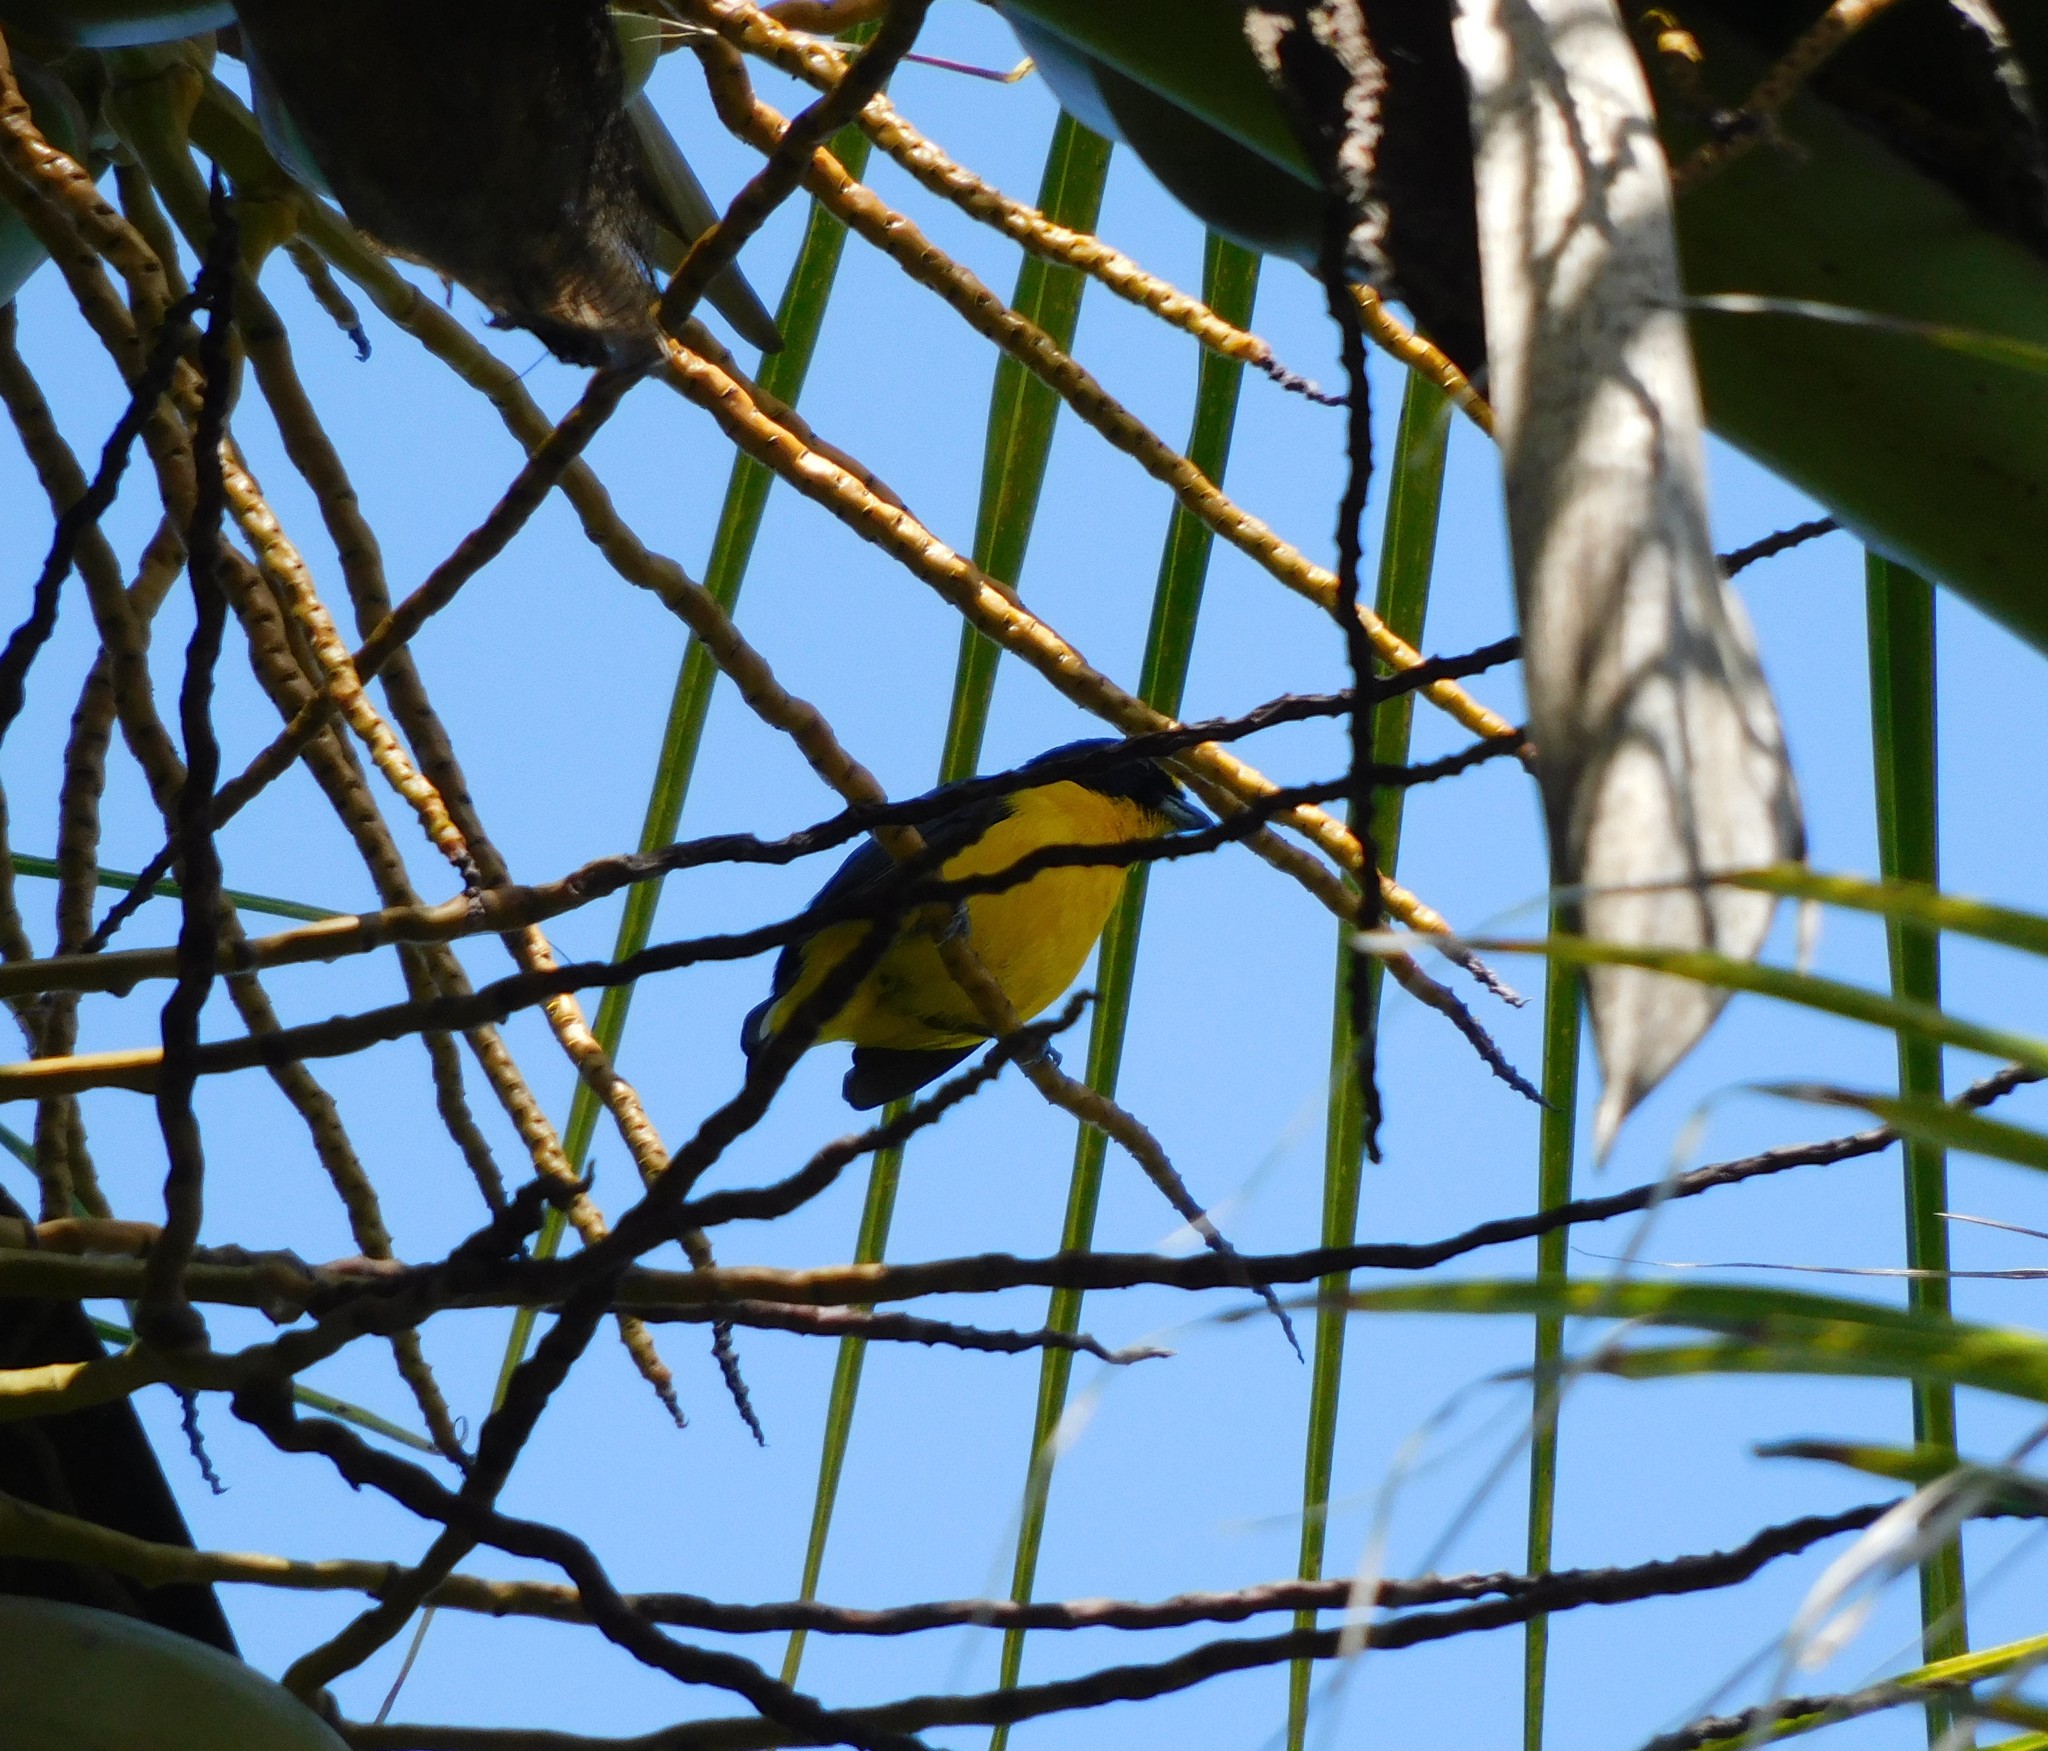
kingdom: Animalia
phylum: Chordata
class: Aves
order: Passeriformes
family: Fringillidae
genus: Euphonia
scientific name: Euphonia laniirostris
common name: Thick-billed euphonia
